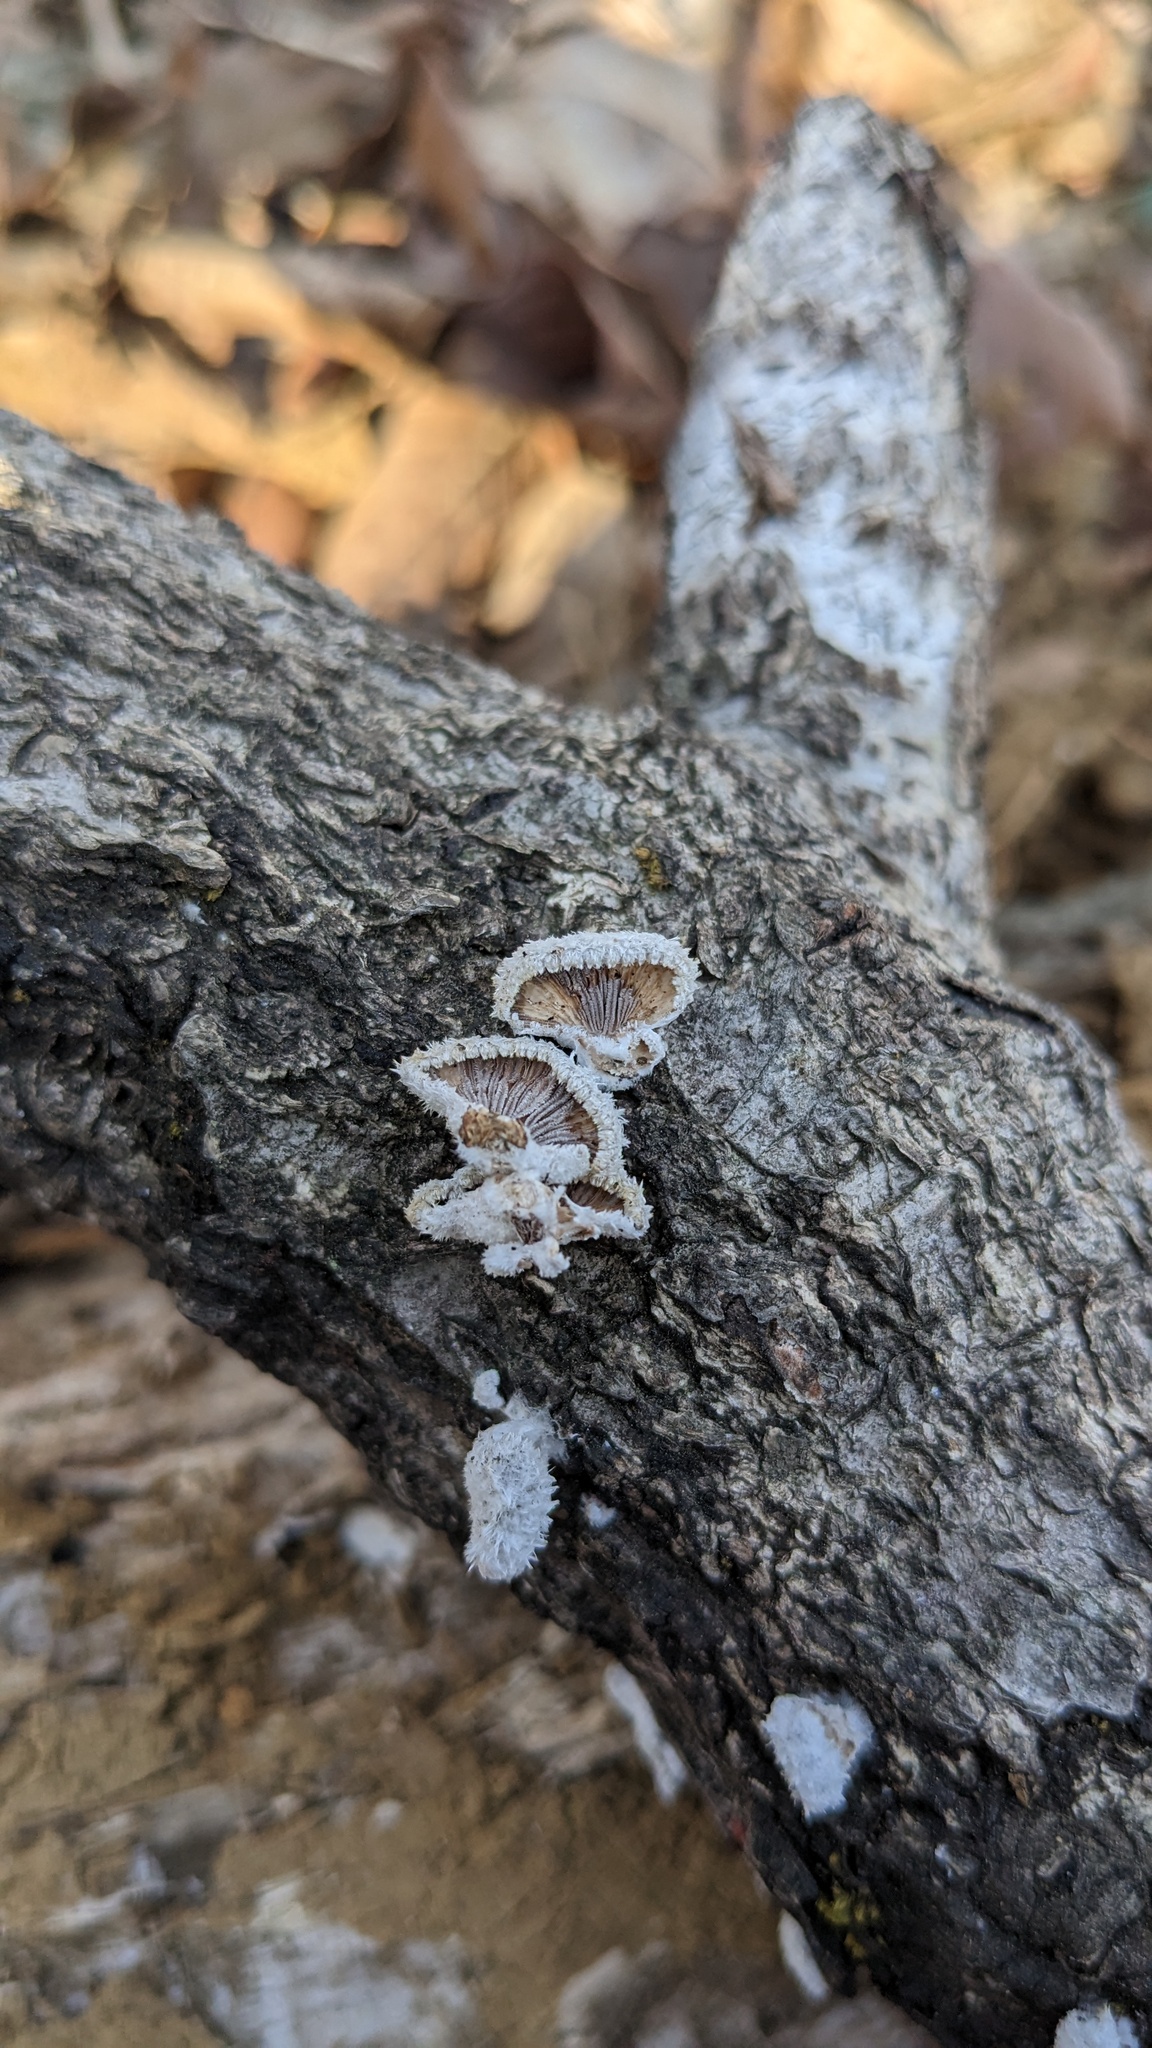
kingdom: Fungi
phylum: Basidiomycota
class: Agaricomycetes
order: Agaricales
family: Schizophyllaceae
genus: Schizophyllum
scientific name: Schizophyllum commune
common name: Common porecrust
